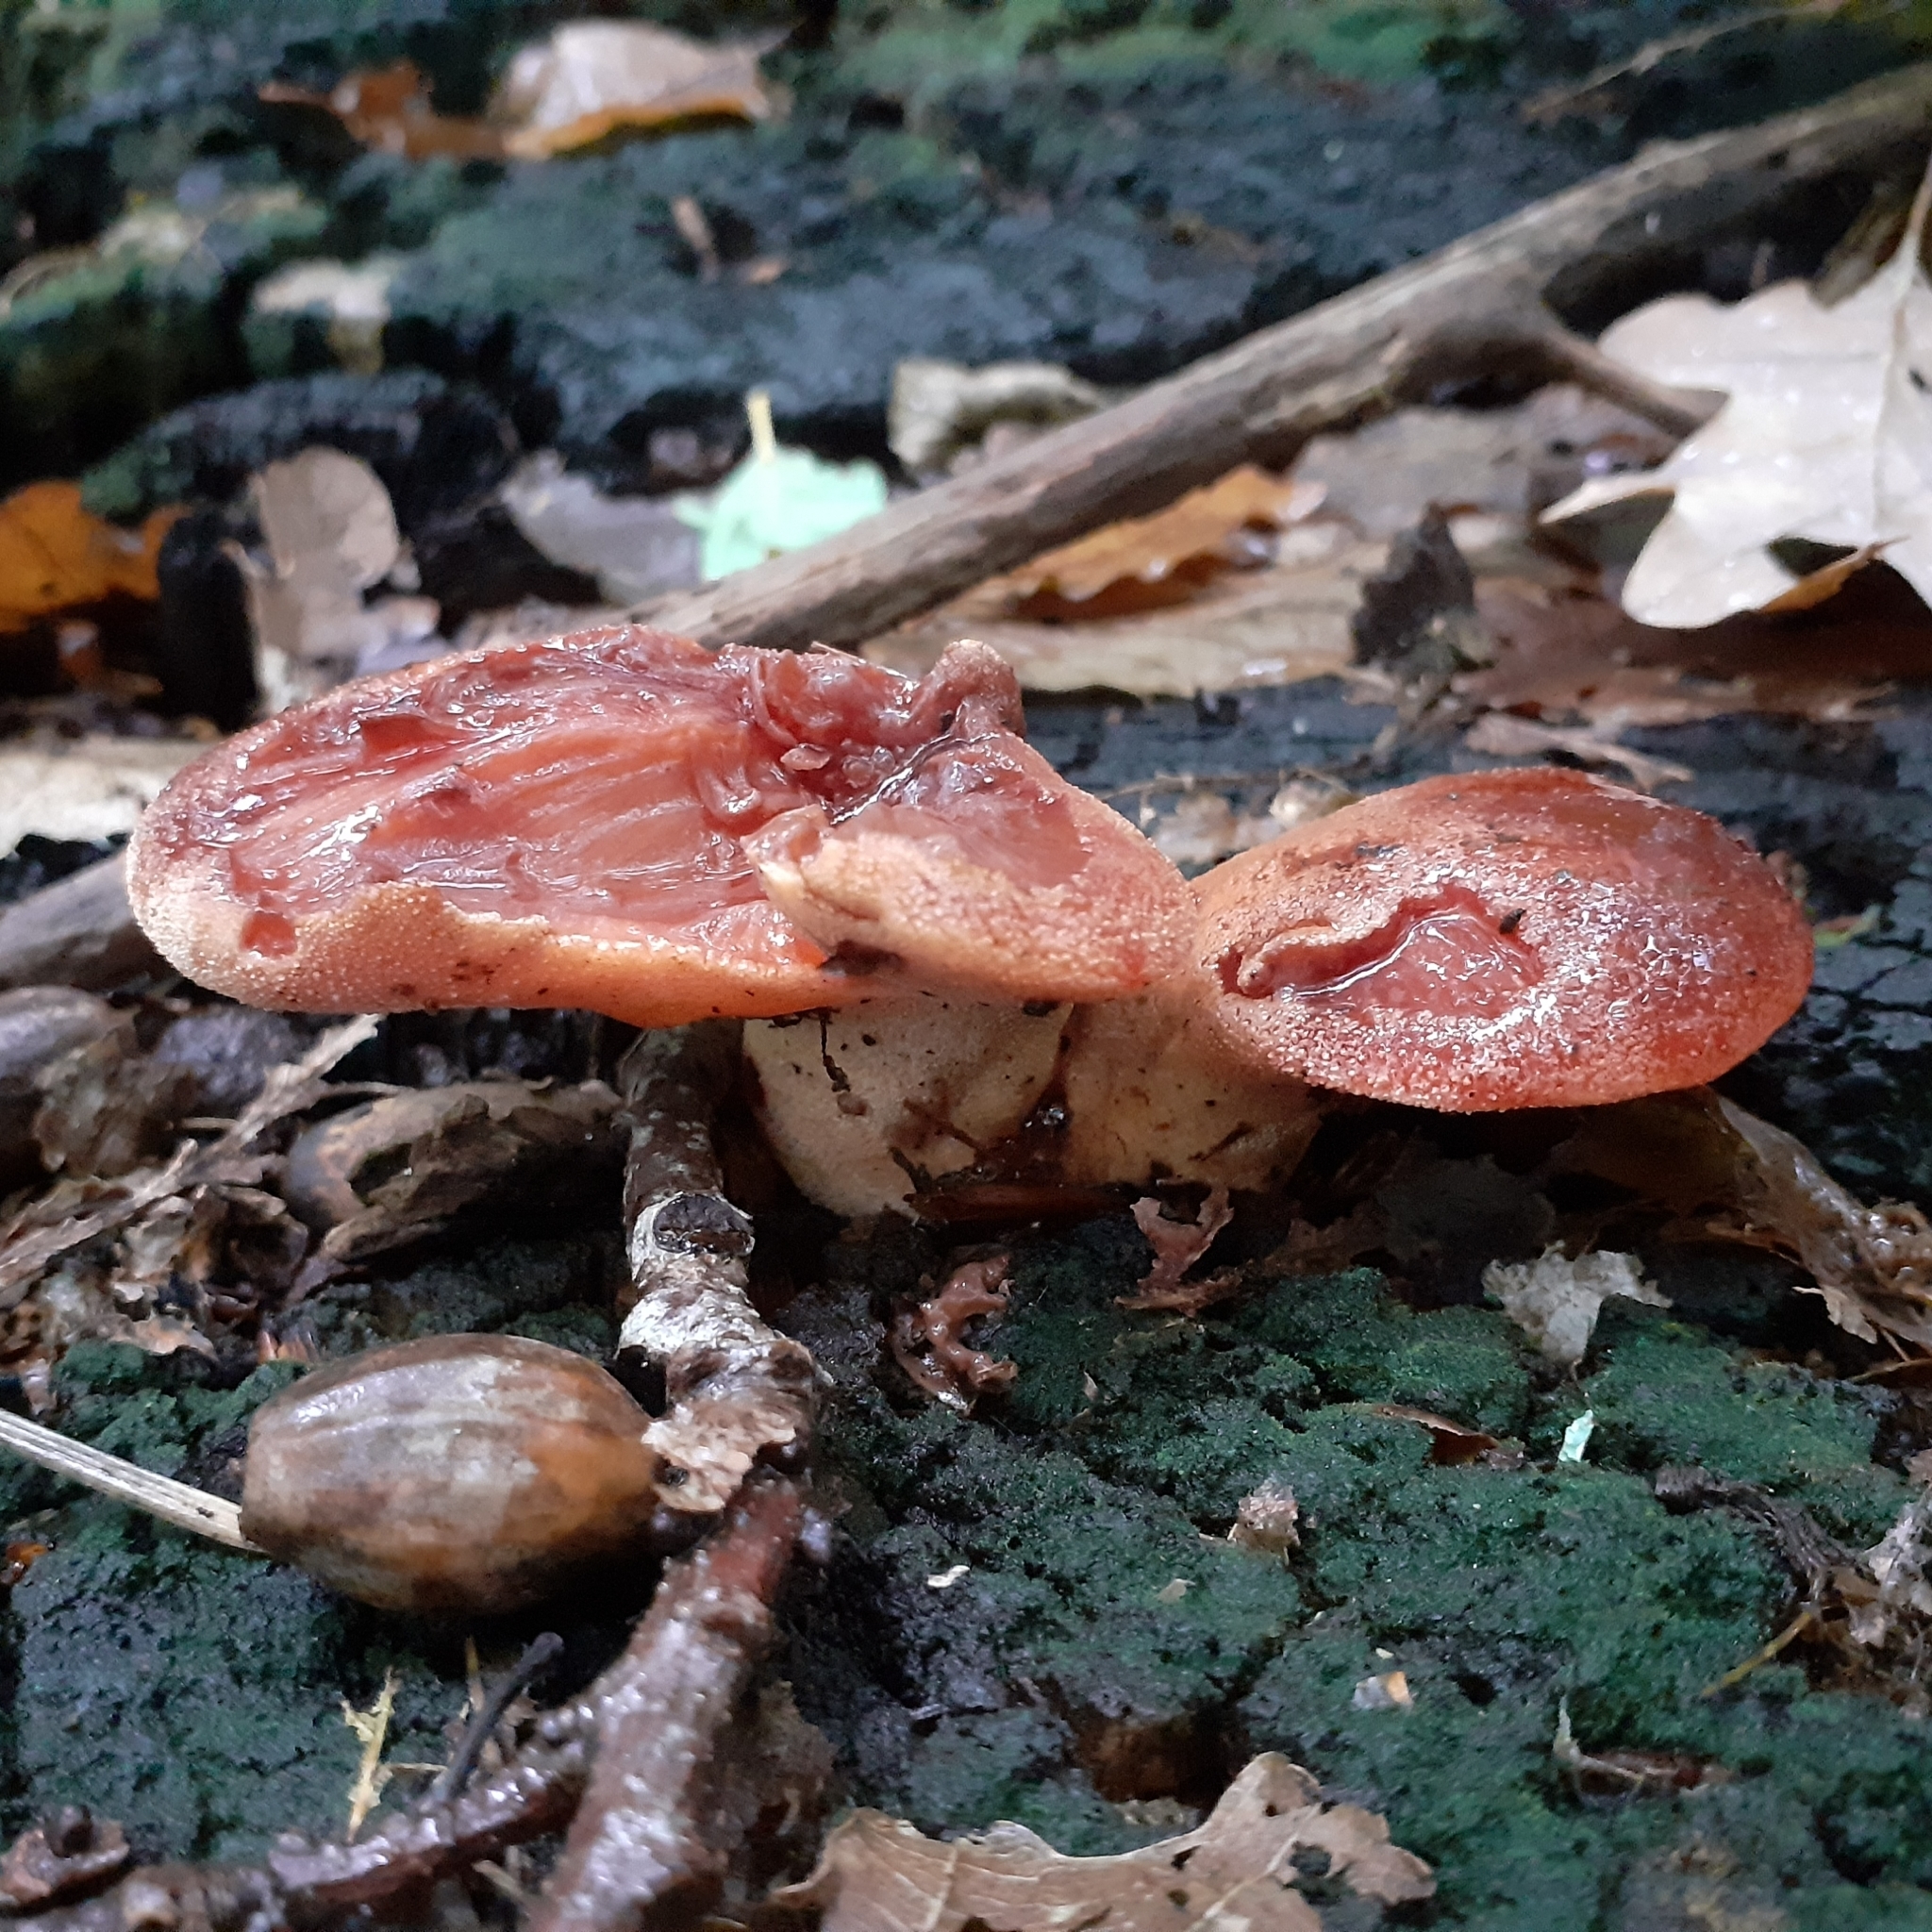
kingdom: Fungi
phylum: Basidiomycota
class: Agaricomycetes
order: Agaricales
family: Fistulinaceae
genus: Fistulina
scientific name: Fistulina hepatica
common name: Beef-steak fungus
